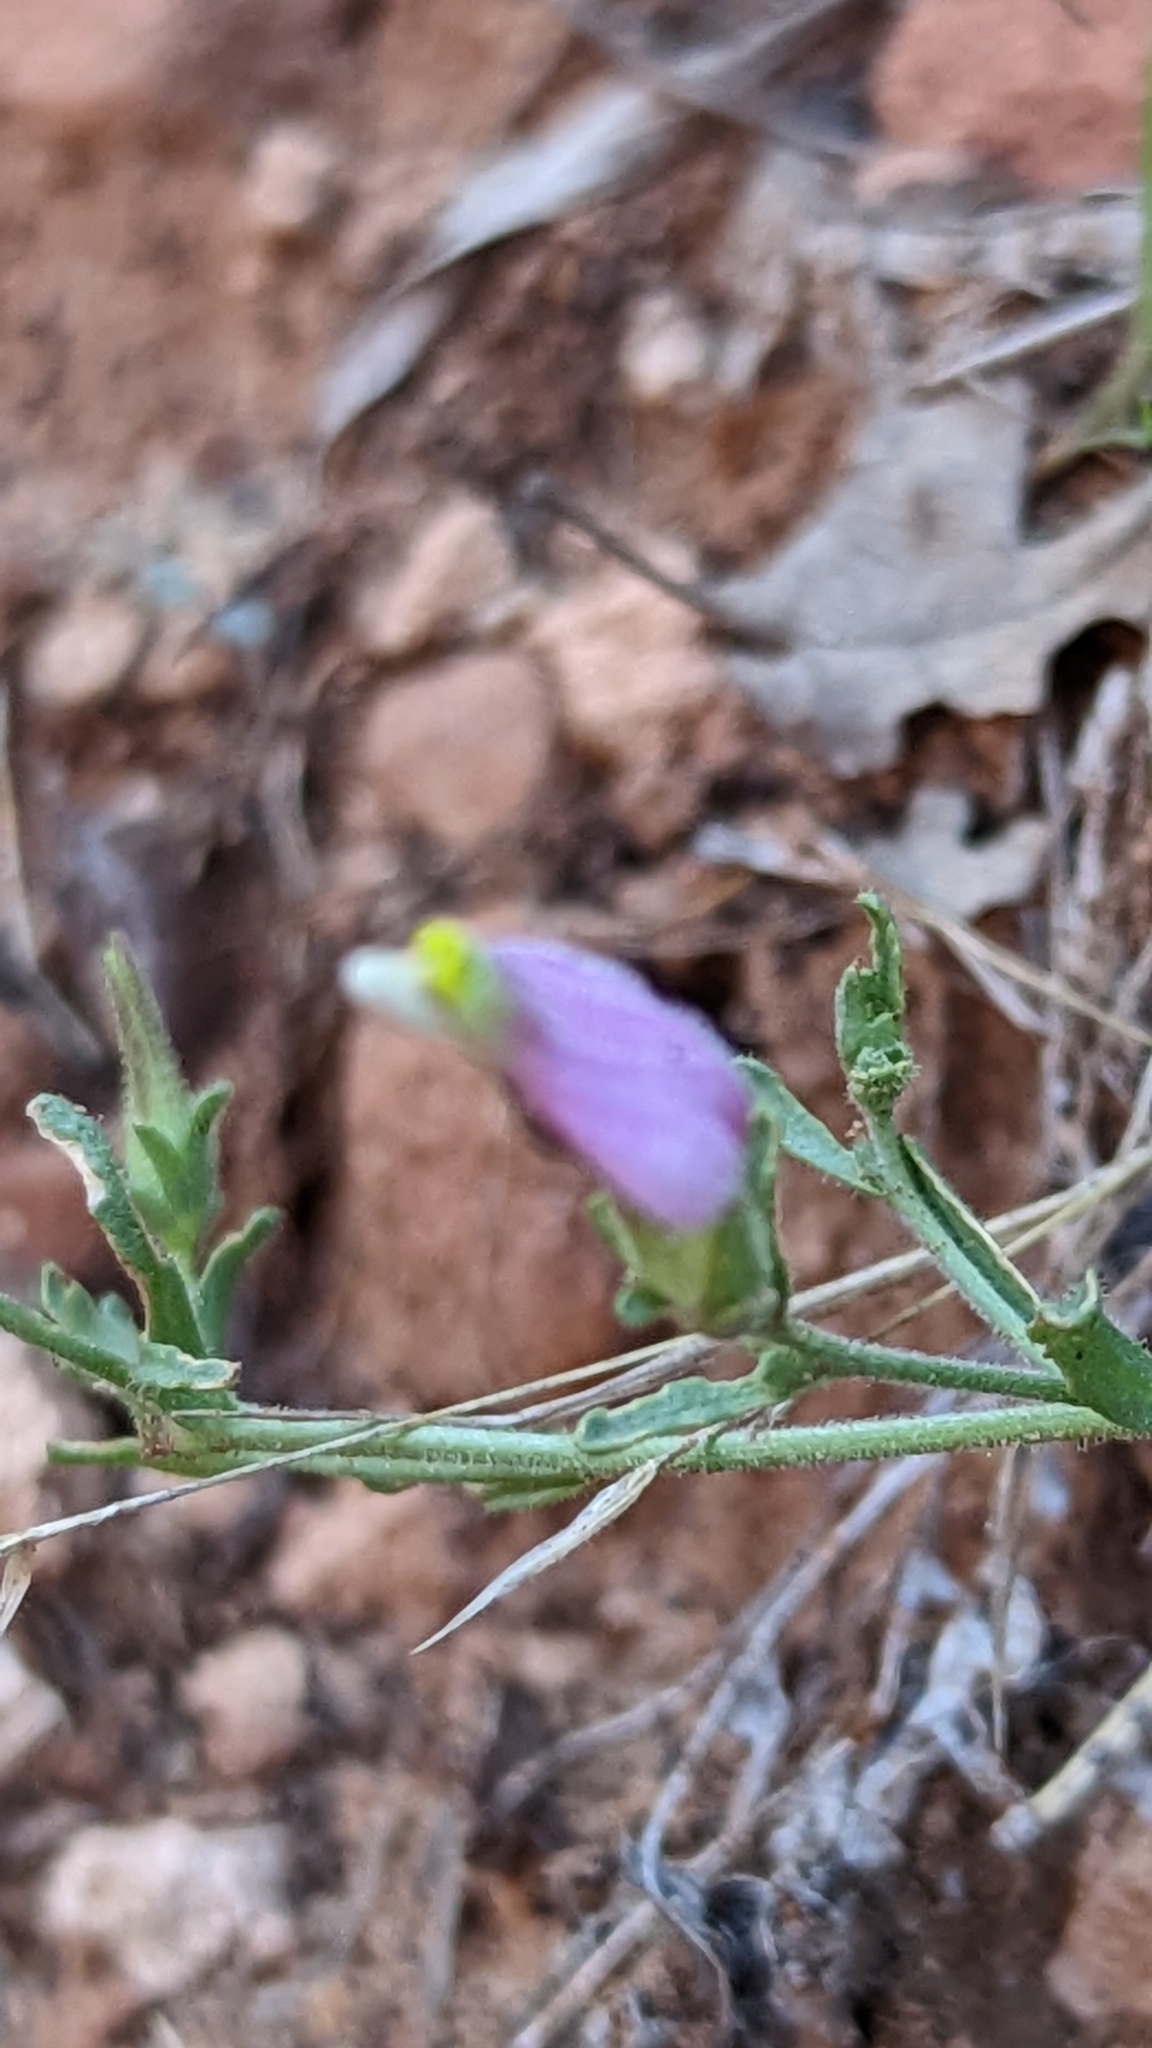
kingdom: Plantae
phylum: Tracheophyta
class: Magnoliopsida
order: Lamiales
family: Orobanchaceae
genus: Cordylanthus
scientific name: Cordylanthus parviflorus
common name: Purple bird's-beak
